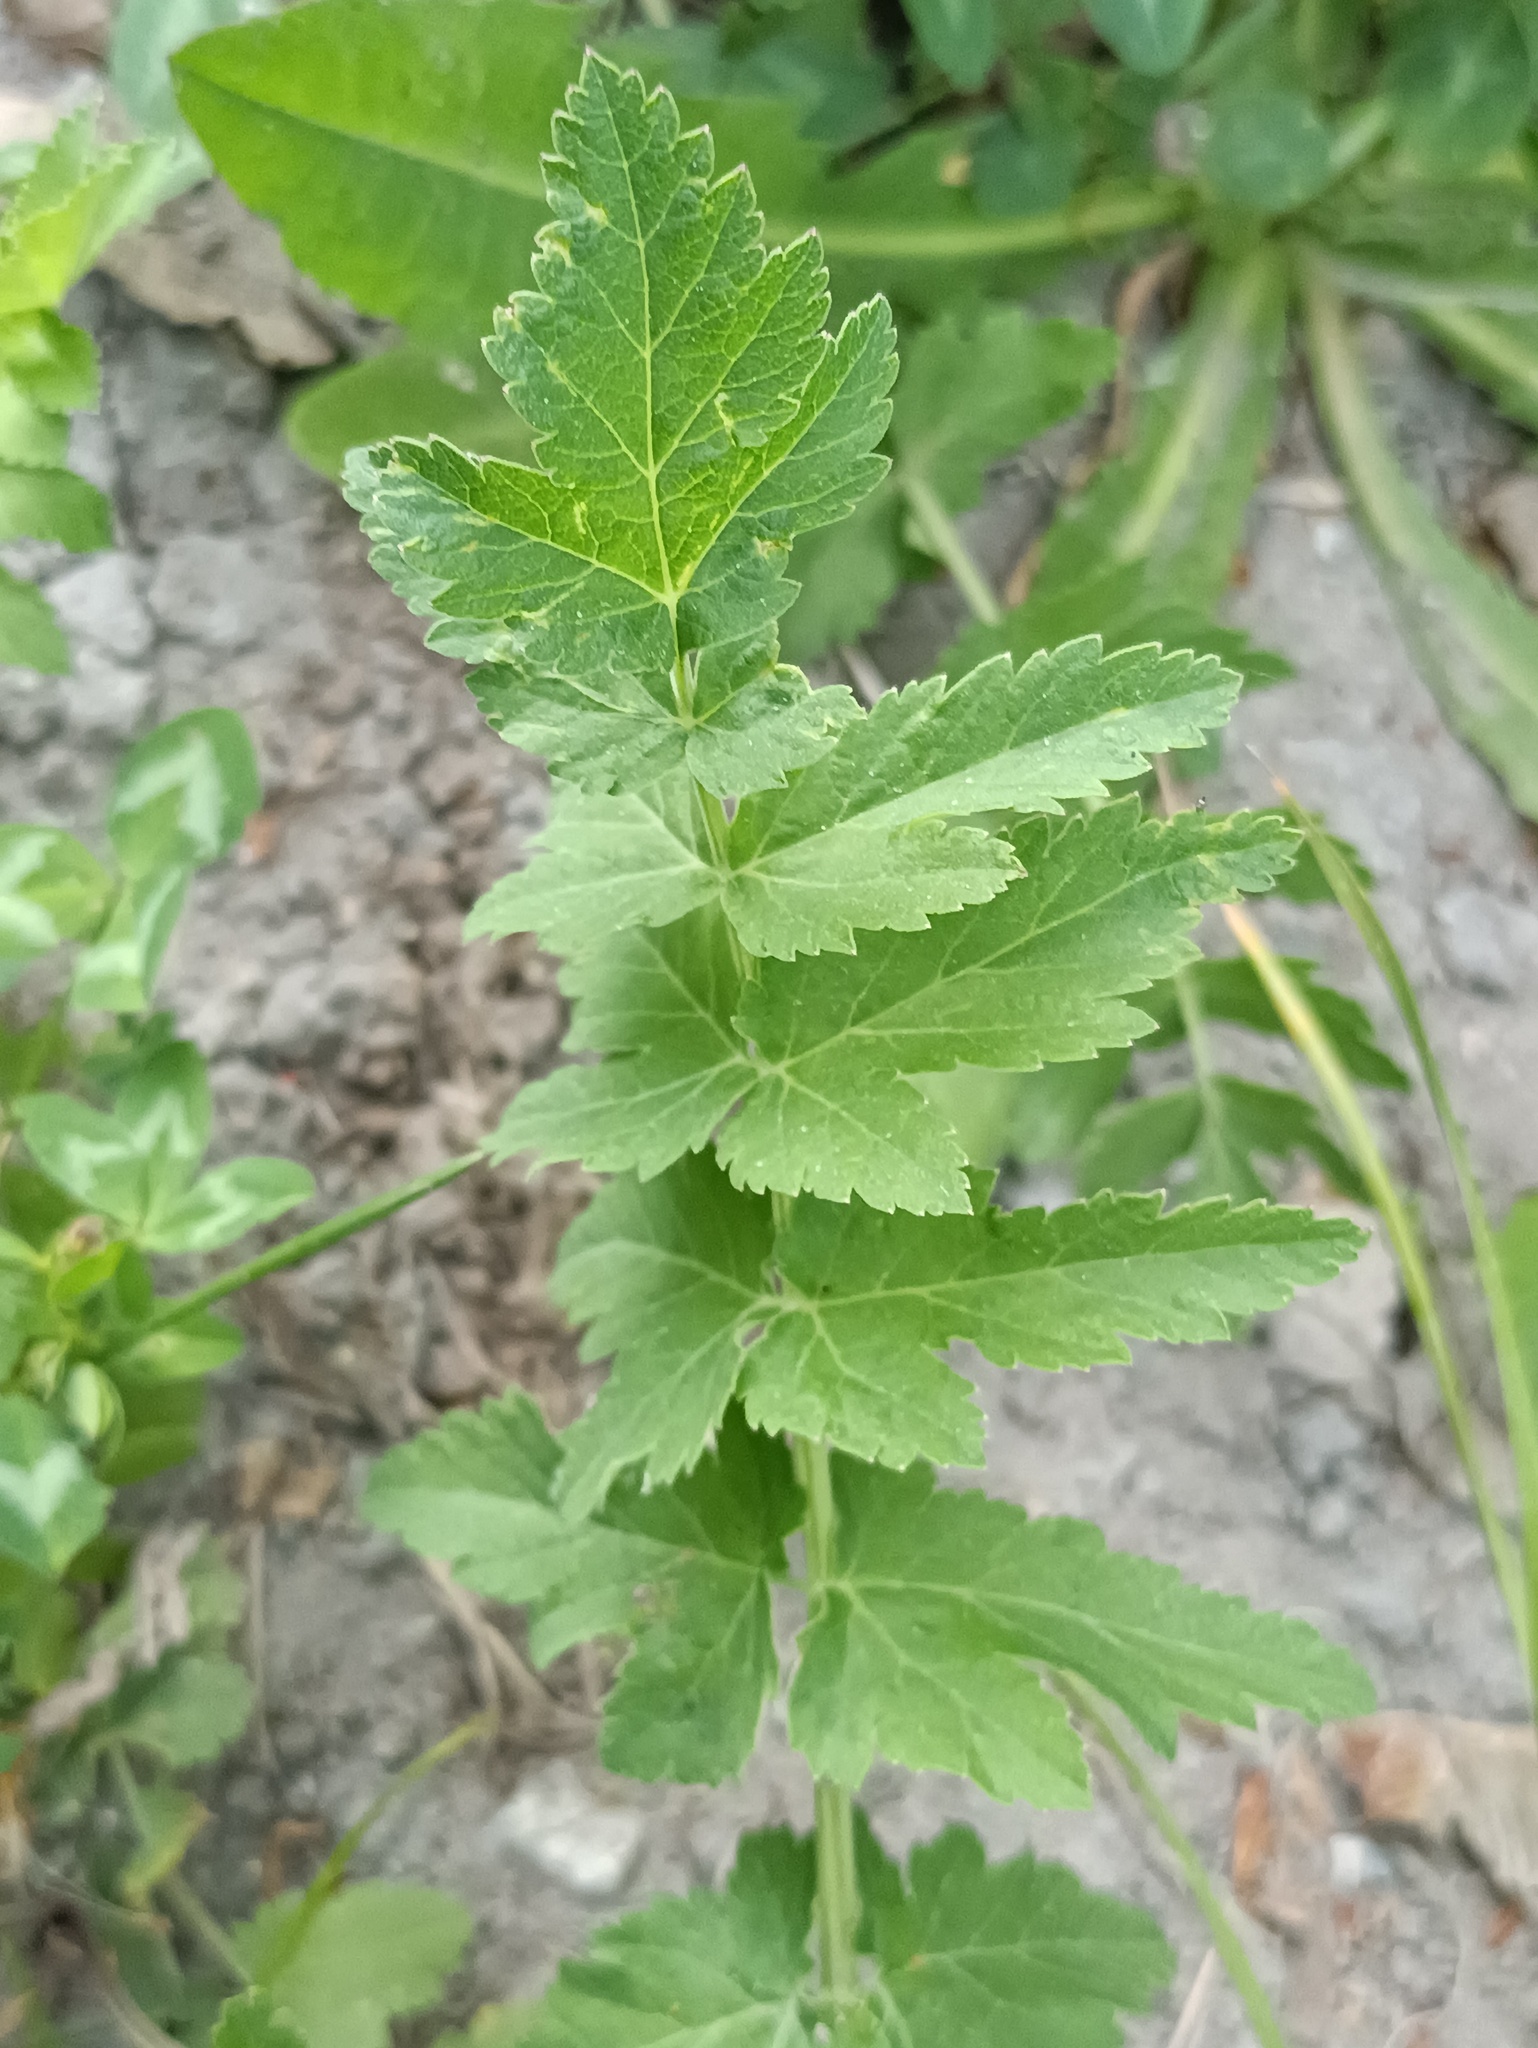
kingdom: Plantae
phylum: Tracheophyta
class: Magnoliopsida
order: Apiales
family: Apiaceae
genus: Pastinaca
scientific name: Pastinaca sativa
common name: Wild parsnip
